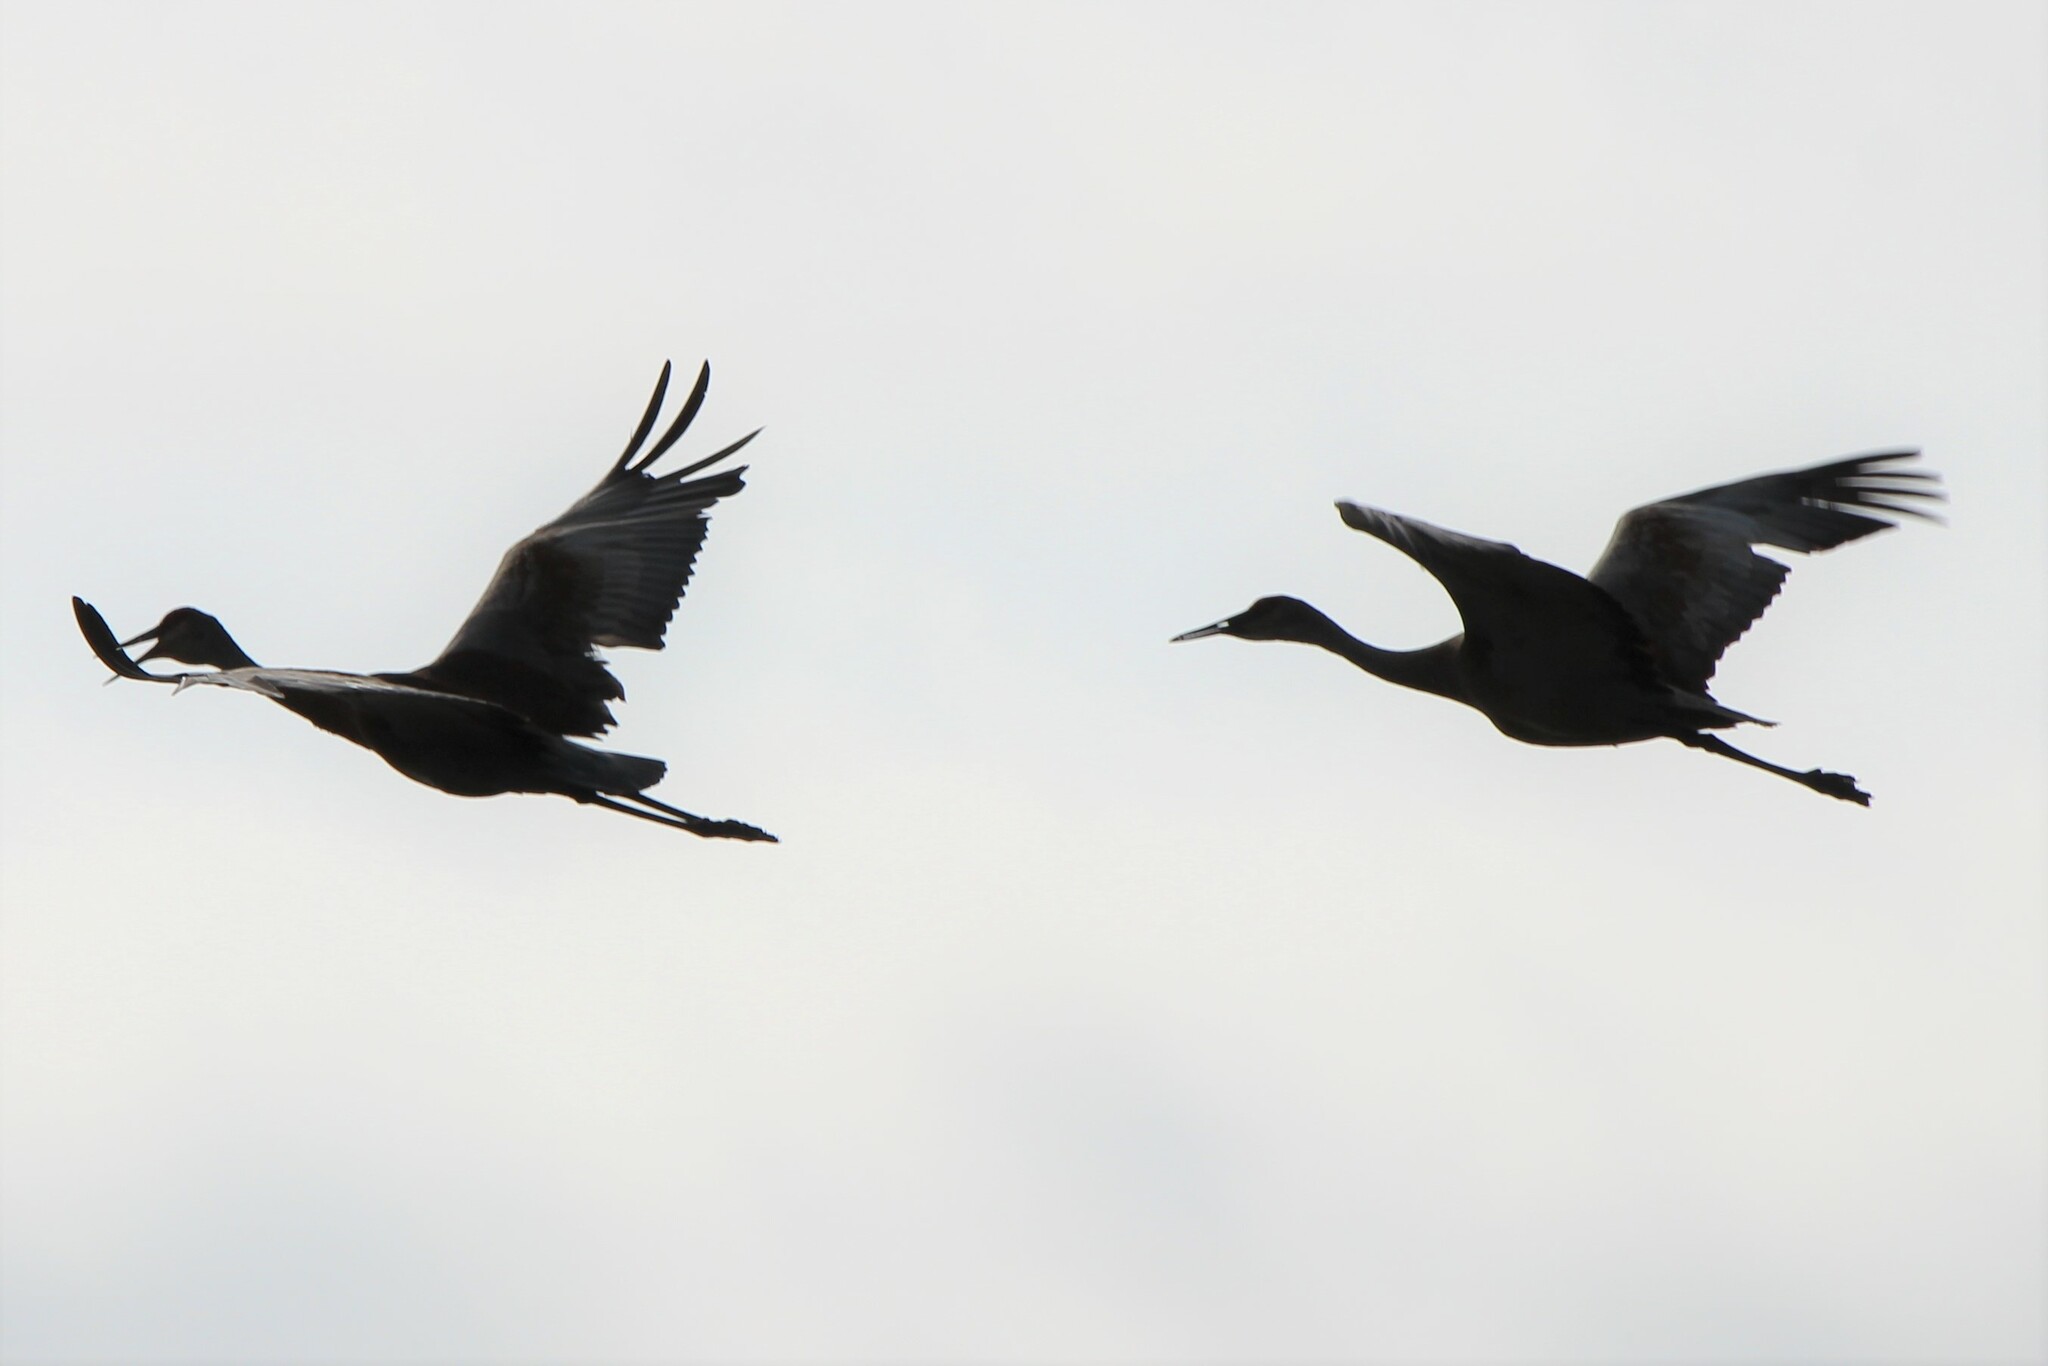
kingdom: Animalia
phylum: Chordata
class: Aves
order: Gruiformes
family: Gruidae
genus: Grus
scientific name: Grus canadensis
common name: Sandhill crane
